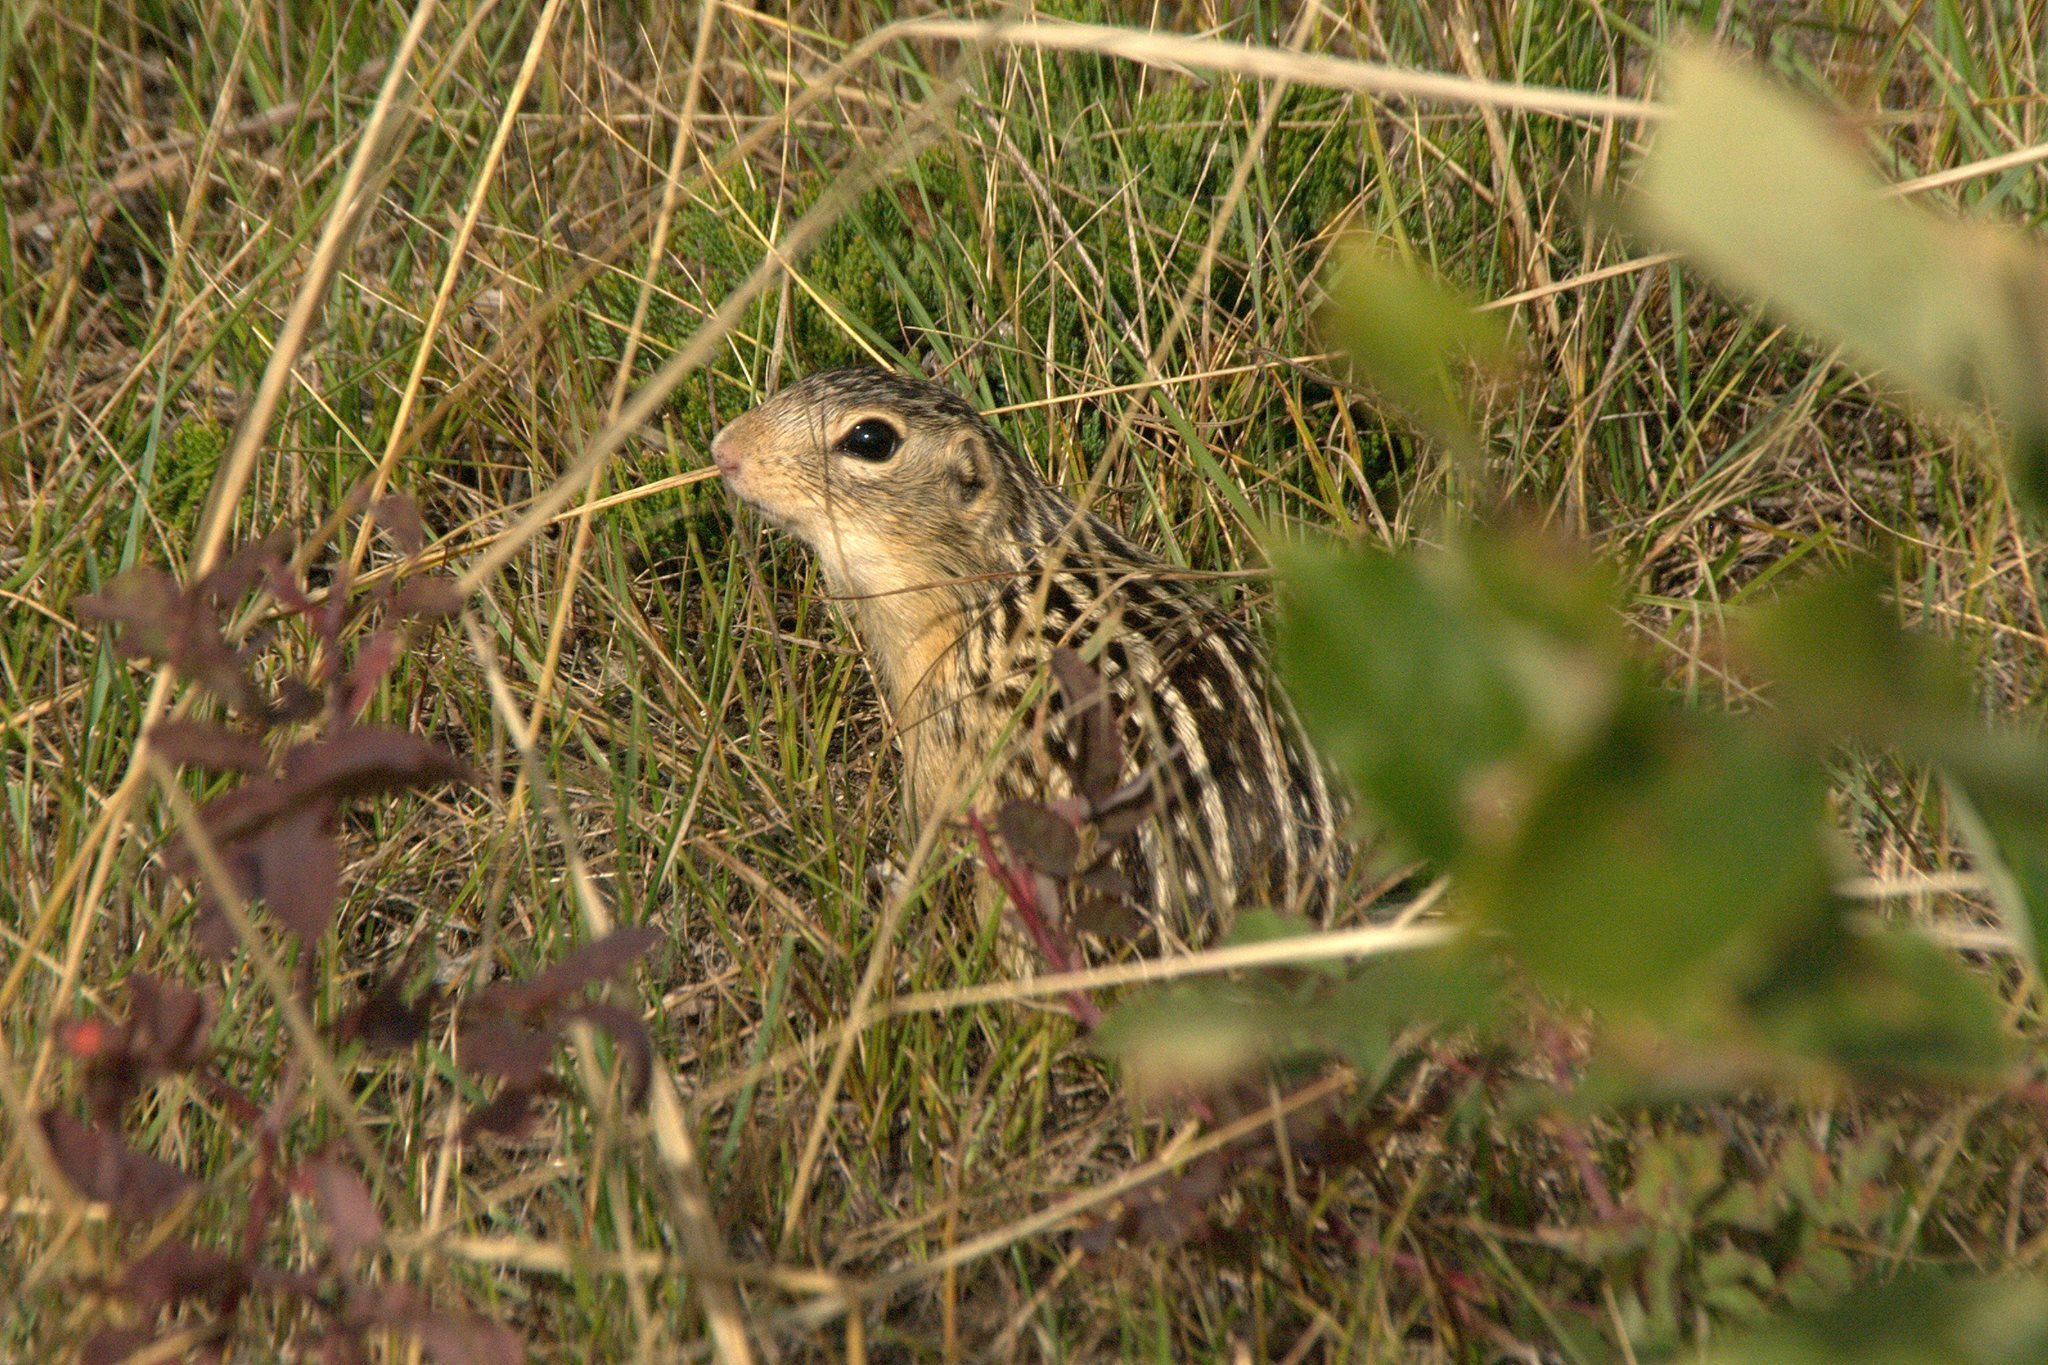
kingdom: Animalia
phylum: Chordata
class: Mammalia
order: Rodentia
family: Sciuridae
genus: Ictidomys
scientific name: Ictidomys tridecemlineatus
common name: Thirteen-lined ground squirrel
